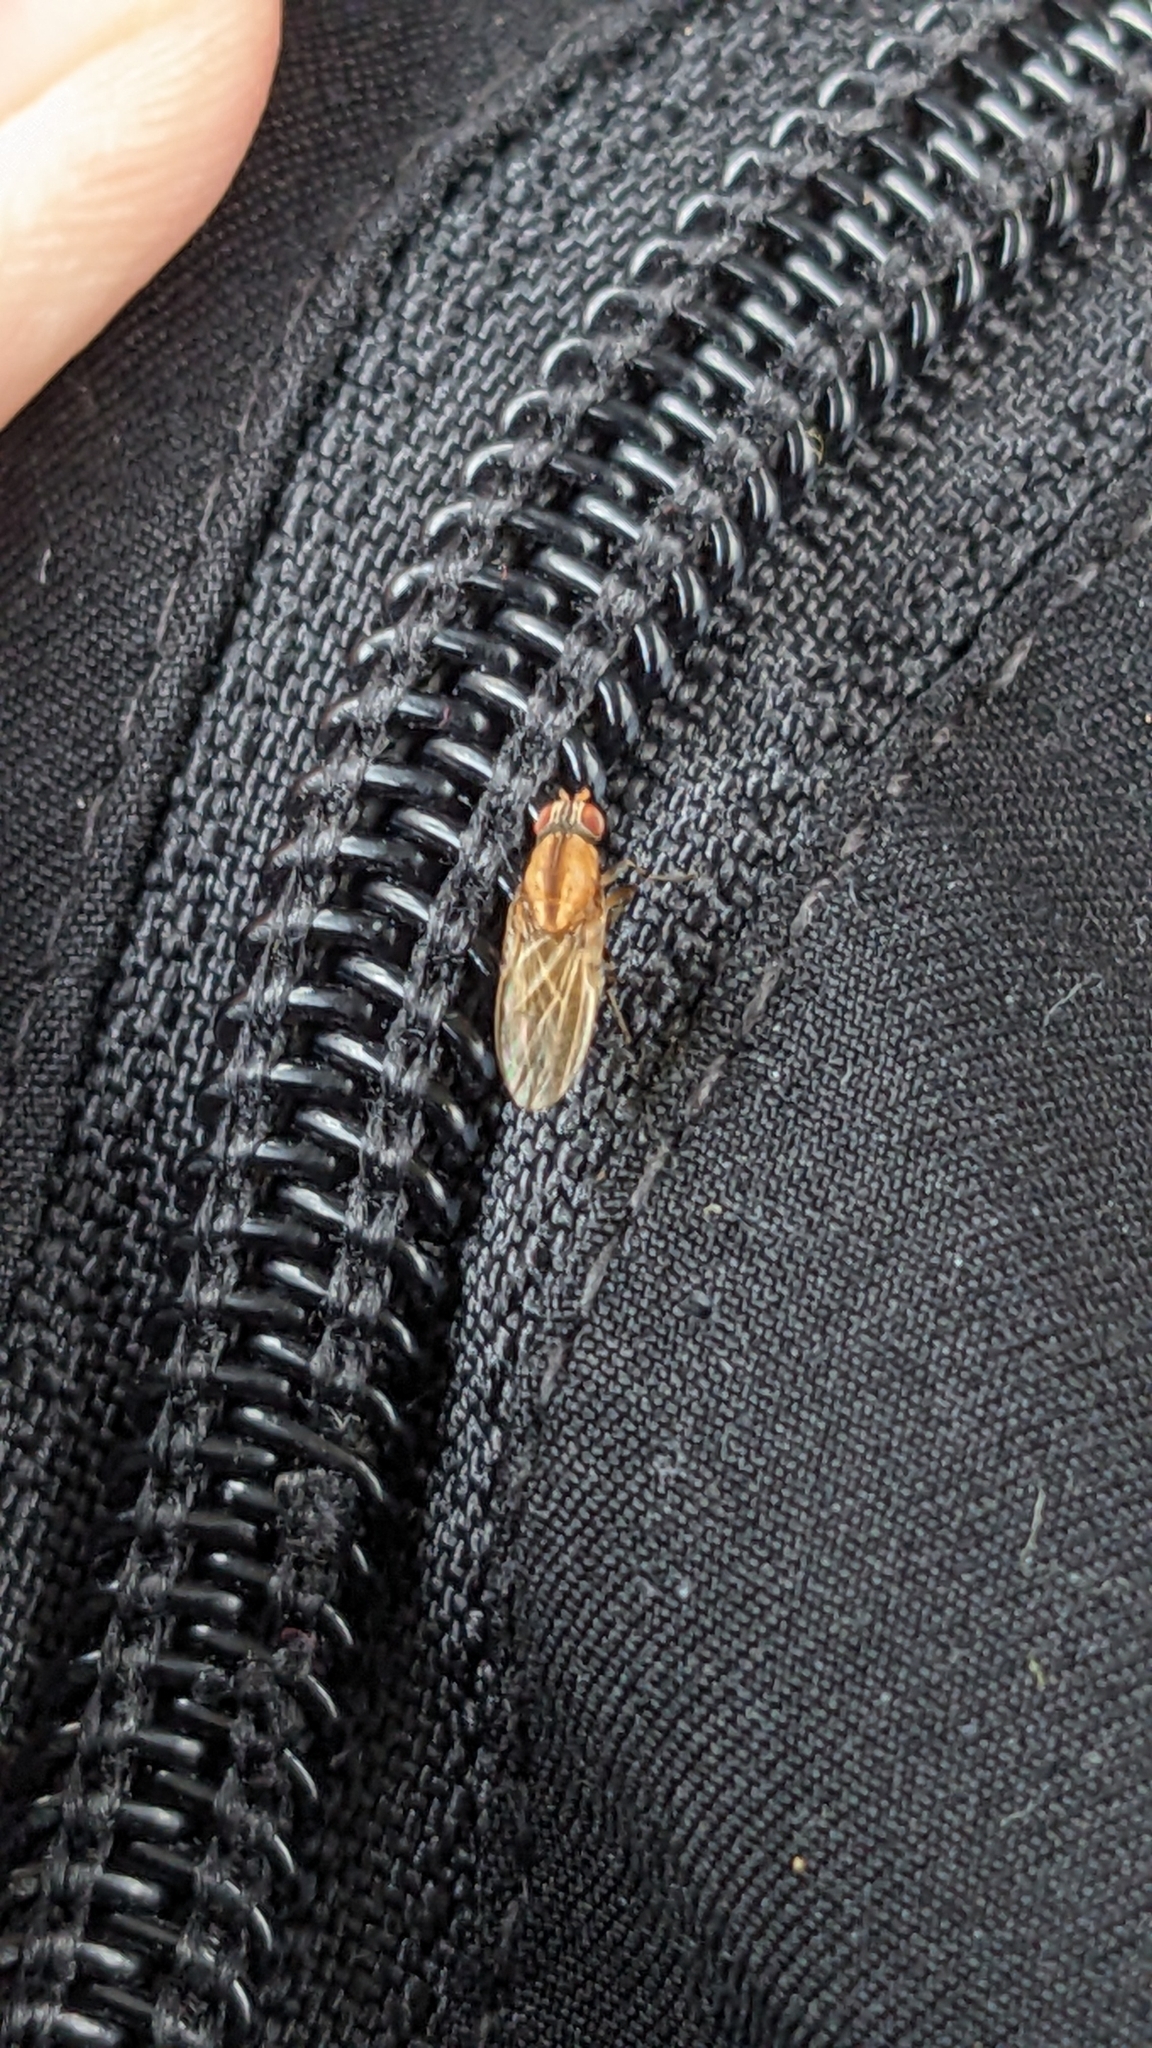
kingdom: Animalia
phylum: Arthropoda
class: Insecta
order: Diptera
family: Lauxaniidae
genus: Sapromyza
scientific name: Sapromyza neozelandica
